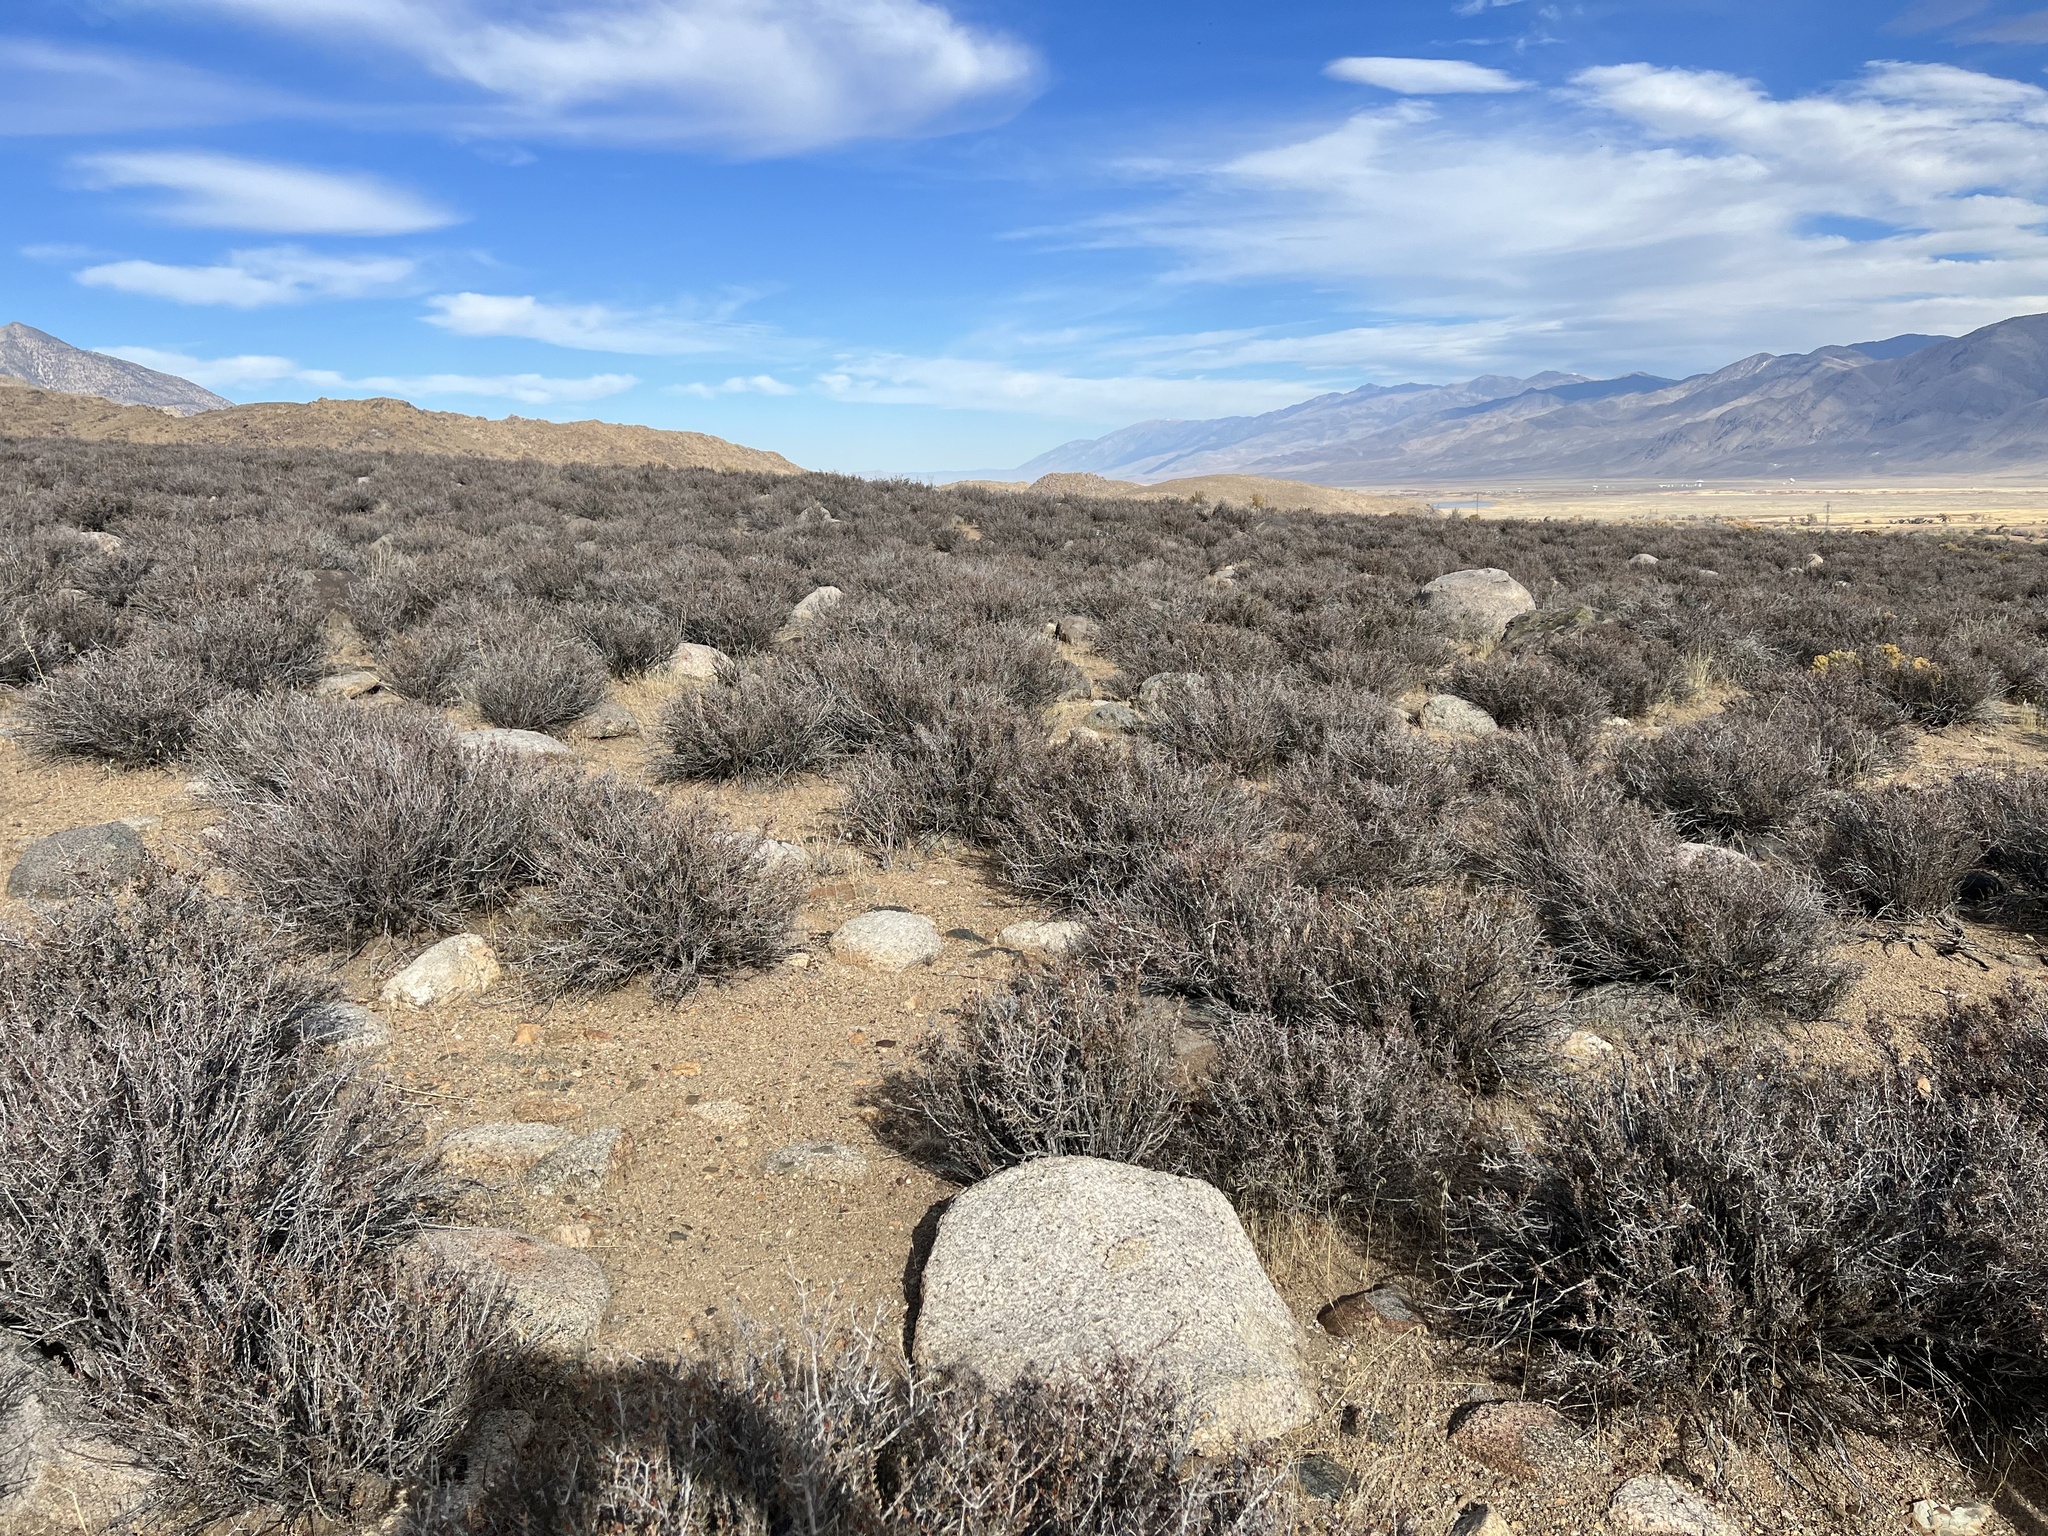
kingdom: Plantae
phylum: Tracheophyta
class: Magnoliopsida
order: Rosales
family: Rosaceae
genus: Coleogyne
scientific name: Coleogyne ramosissima
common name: Blackbrush
